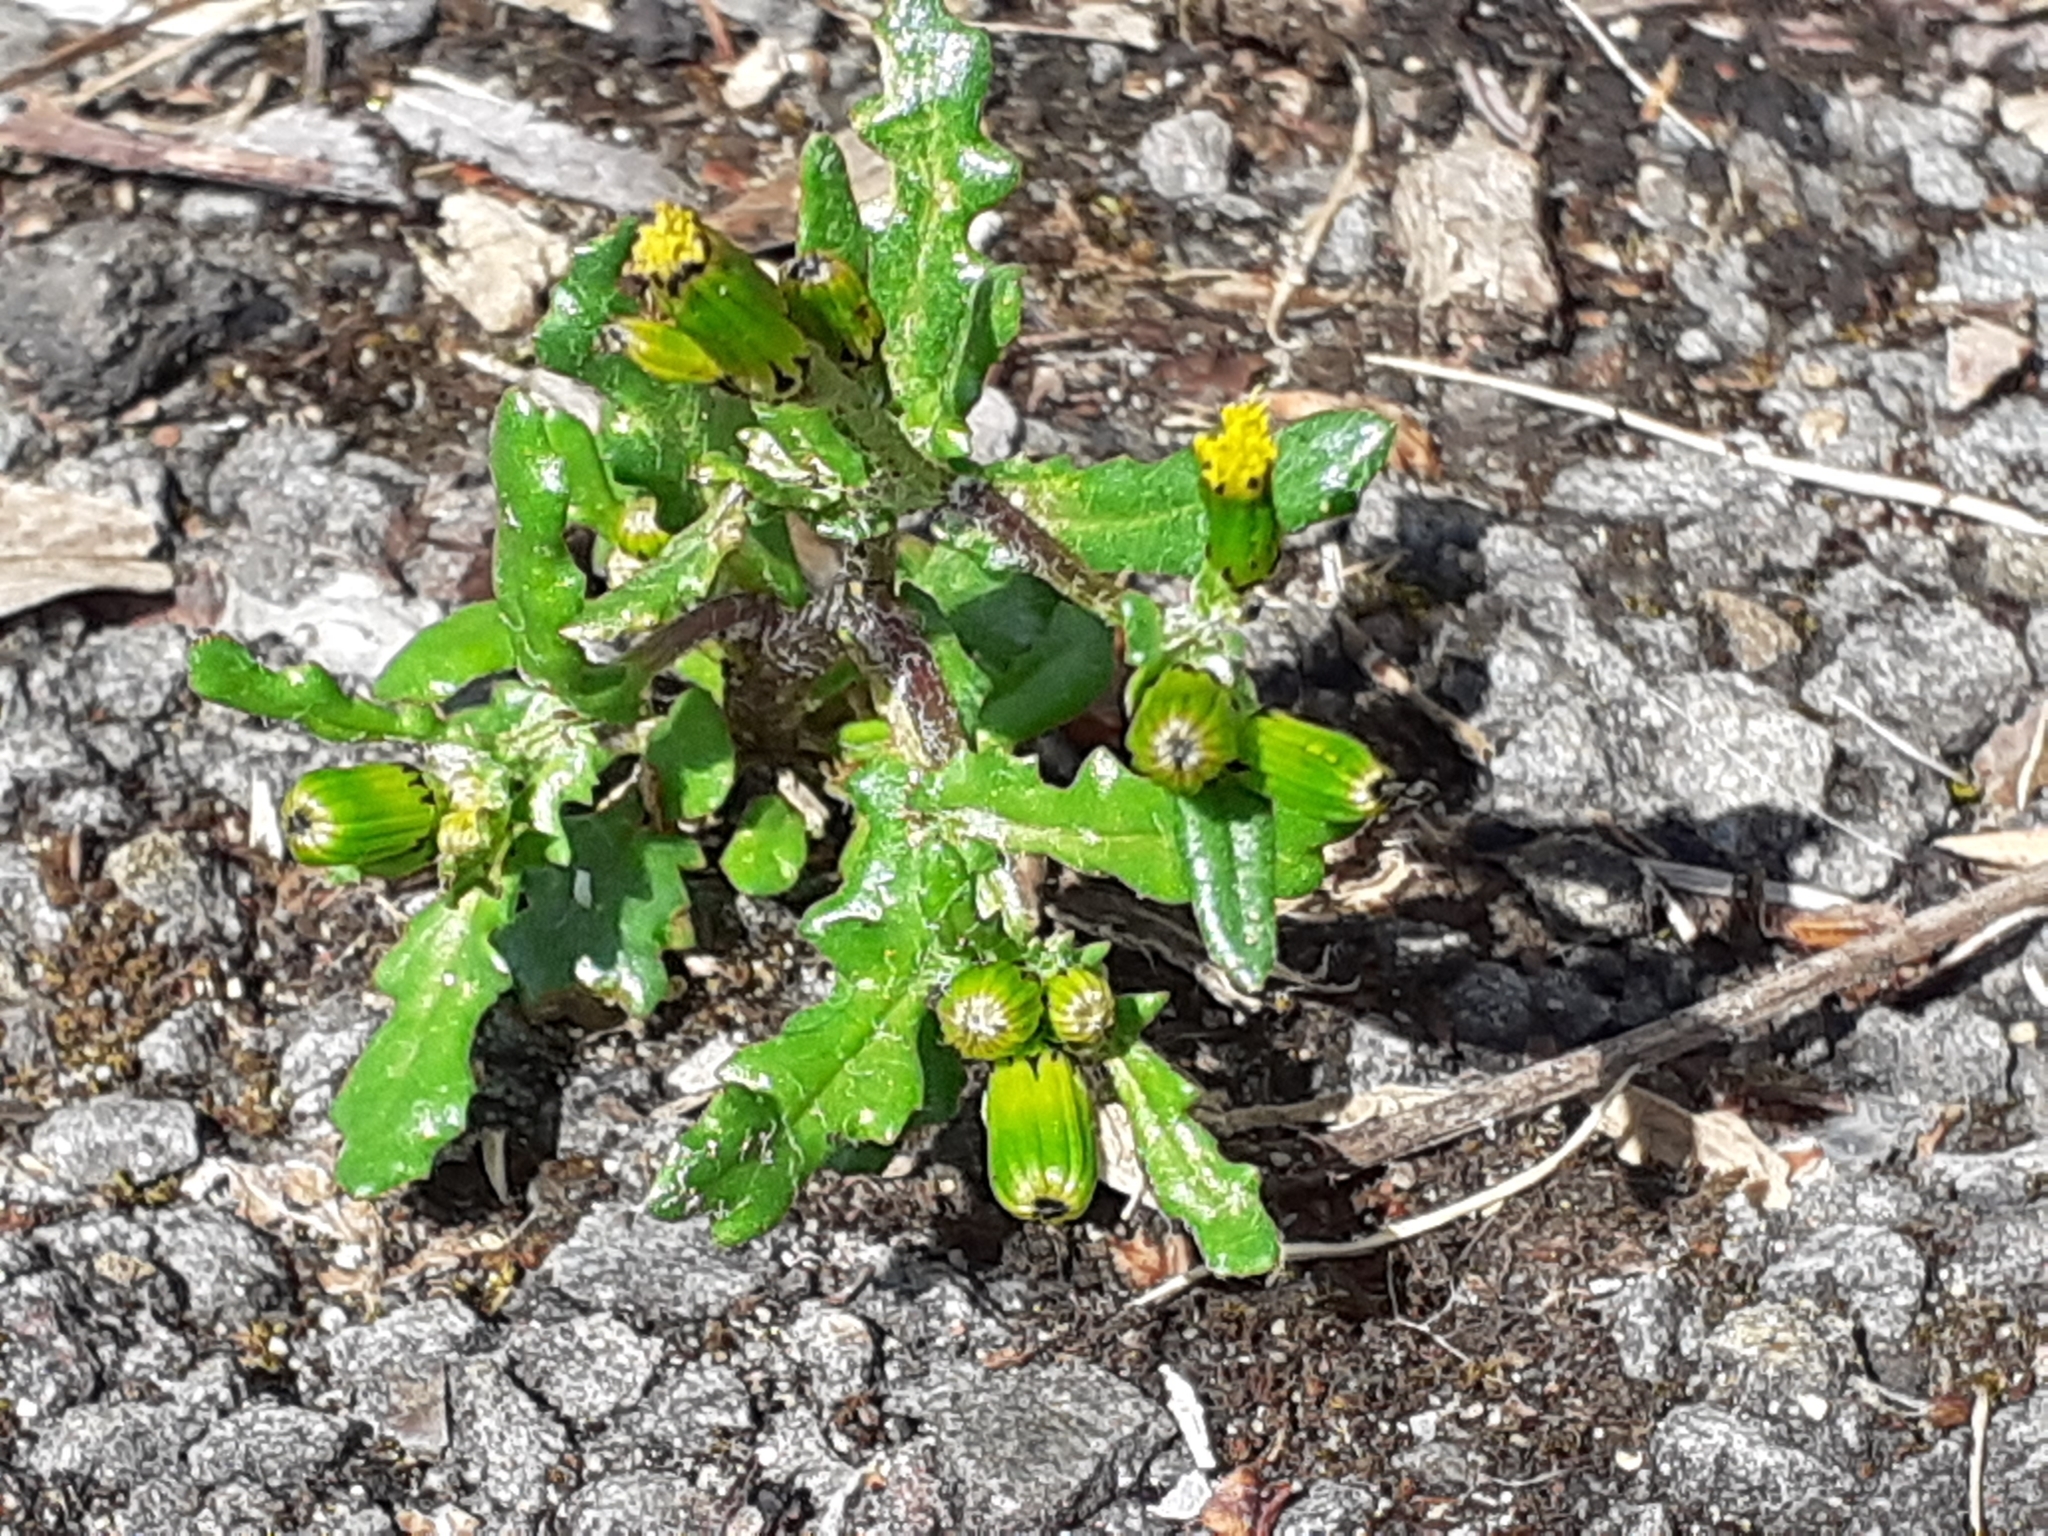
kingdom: Plantae
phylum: Tracheophyta
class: Magnoliopsida
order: Asterales
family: Asteraceae
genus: Senecio
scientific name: Senecio vulgaris
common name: Old-man-in-the-spring
